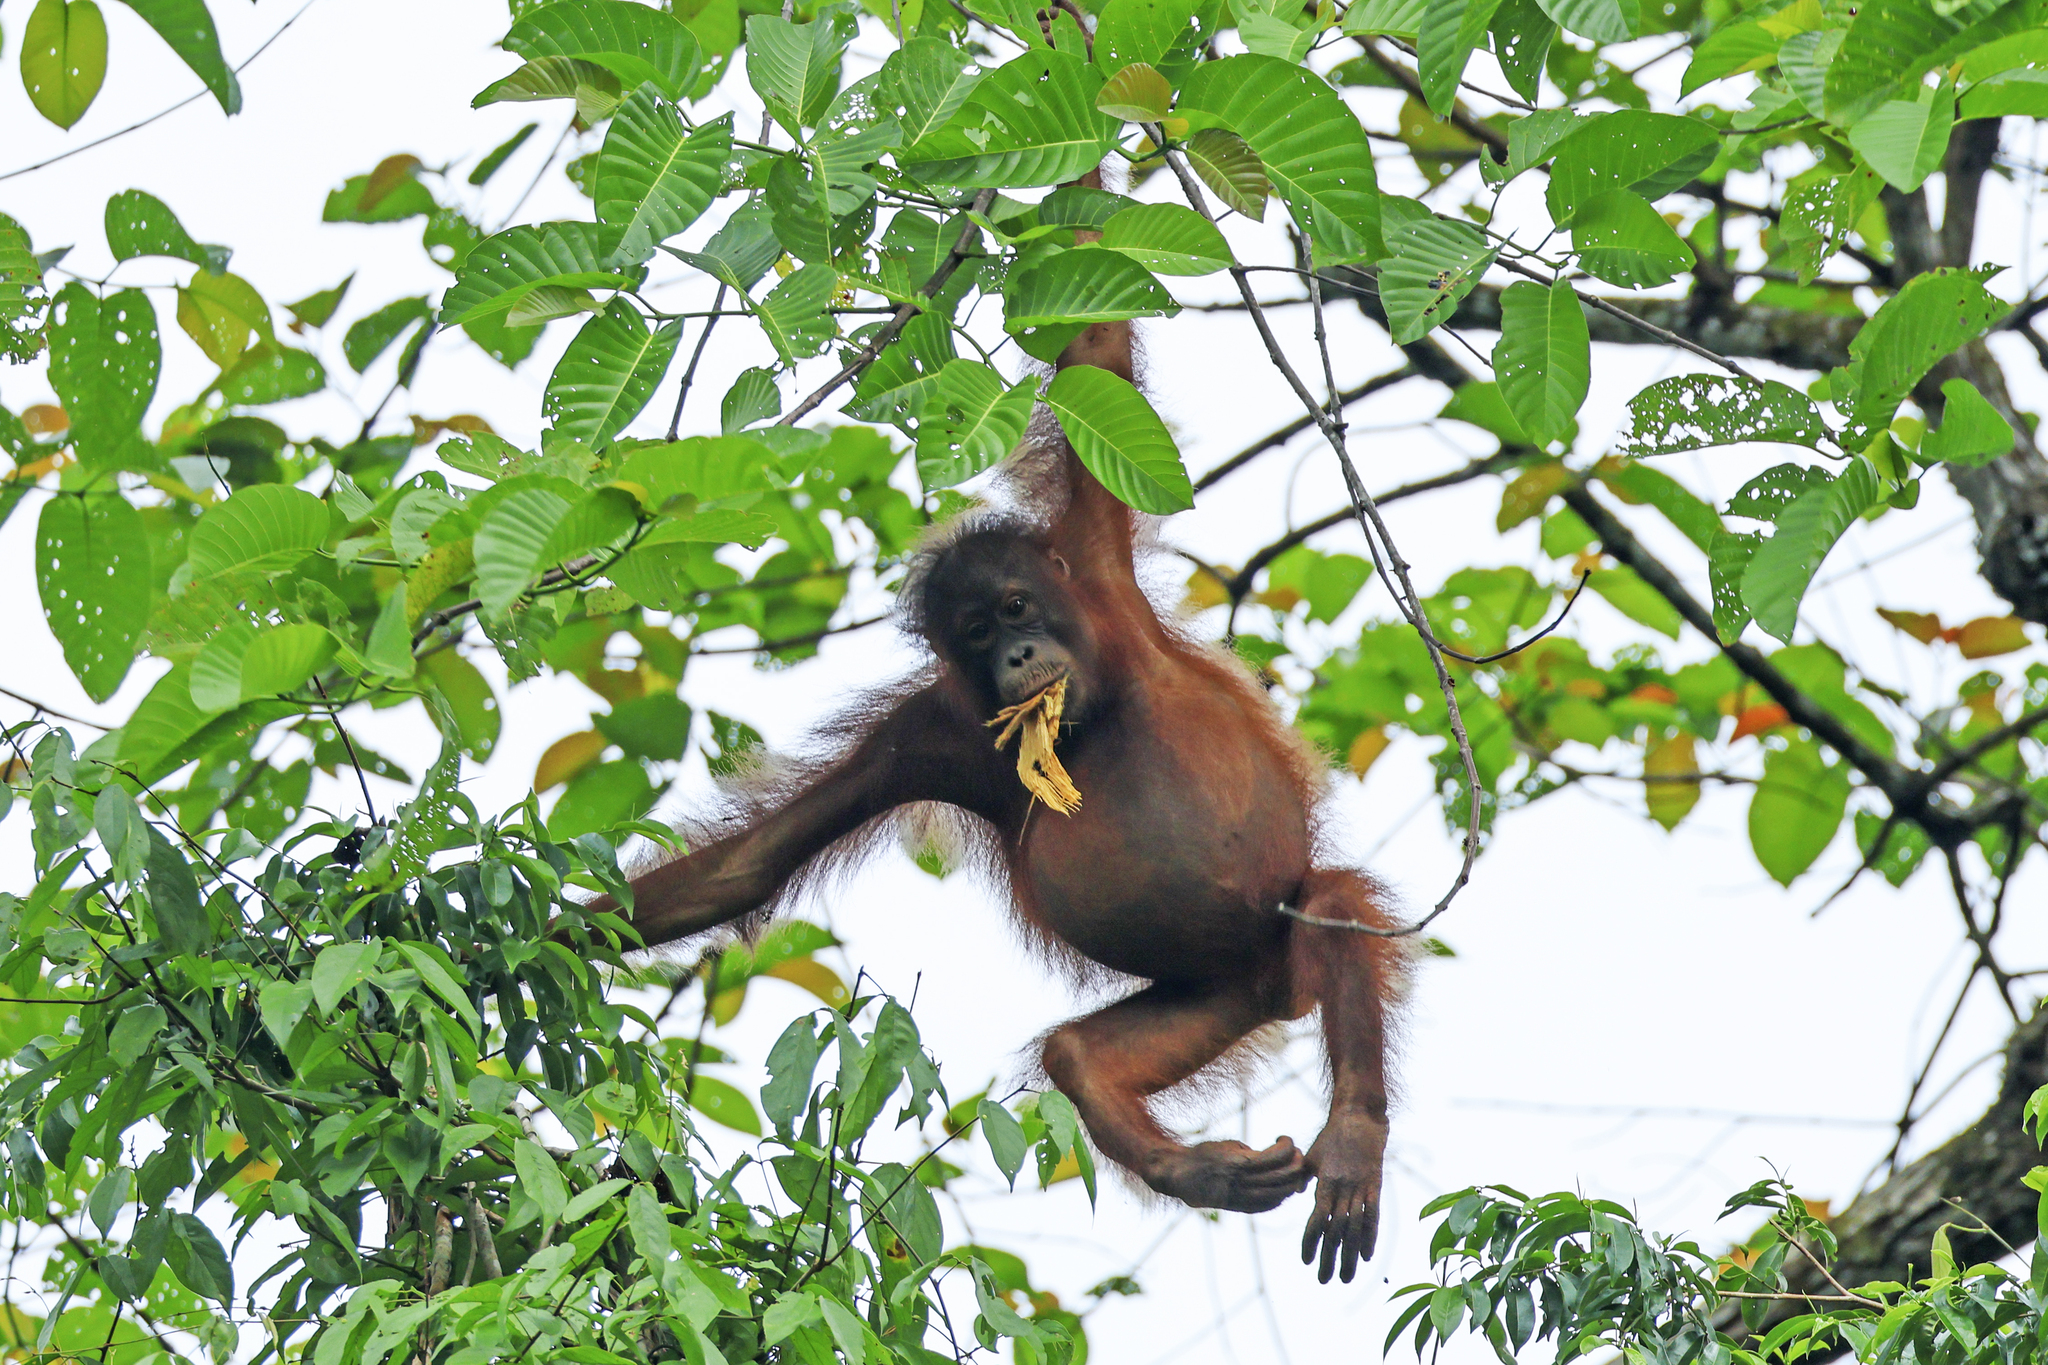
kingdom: Animalia
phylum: Chordata
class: Mammalia
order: Primates
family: Hominidae
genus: Pongo
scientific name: Pongo pygmaeus
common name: Bornean orangutan
